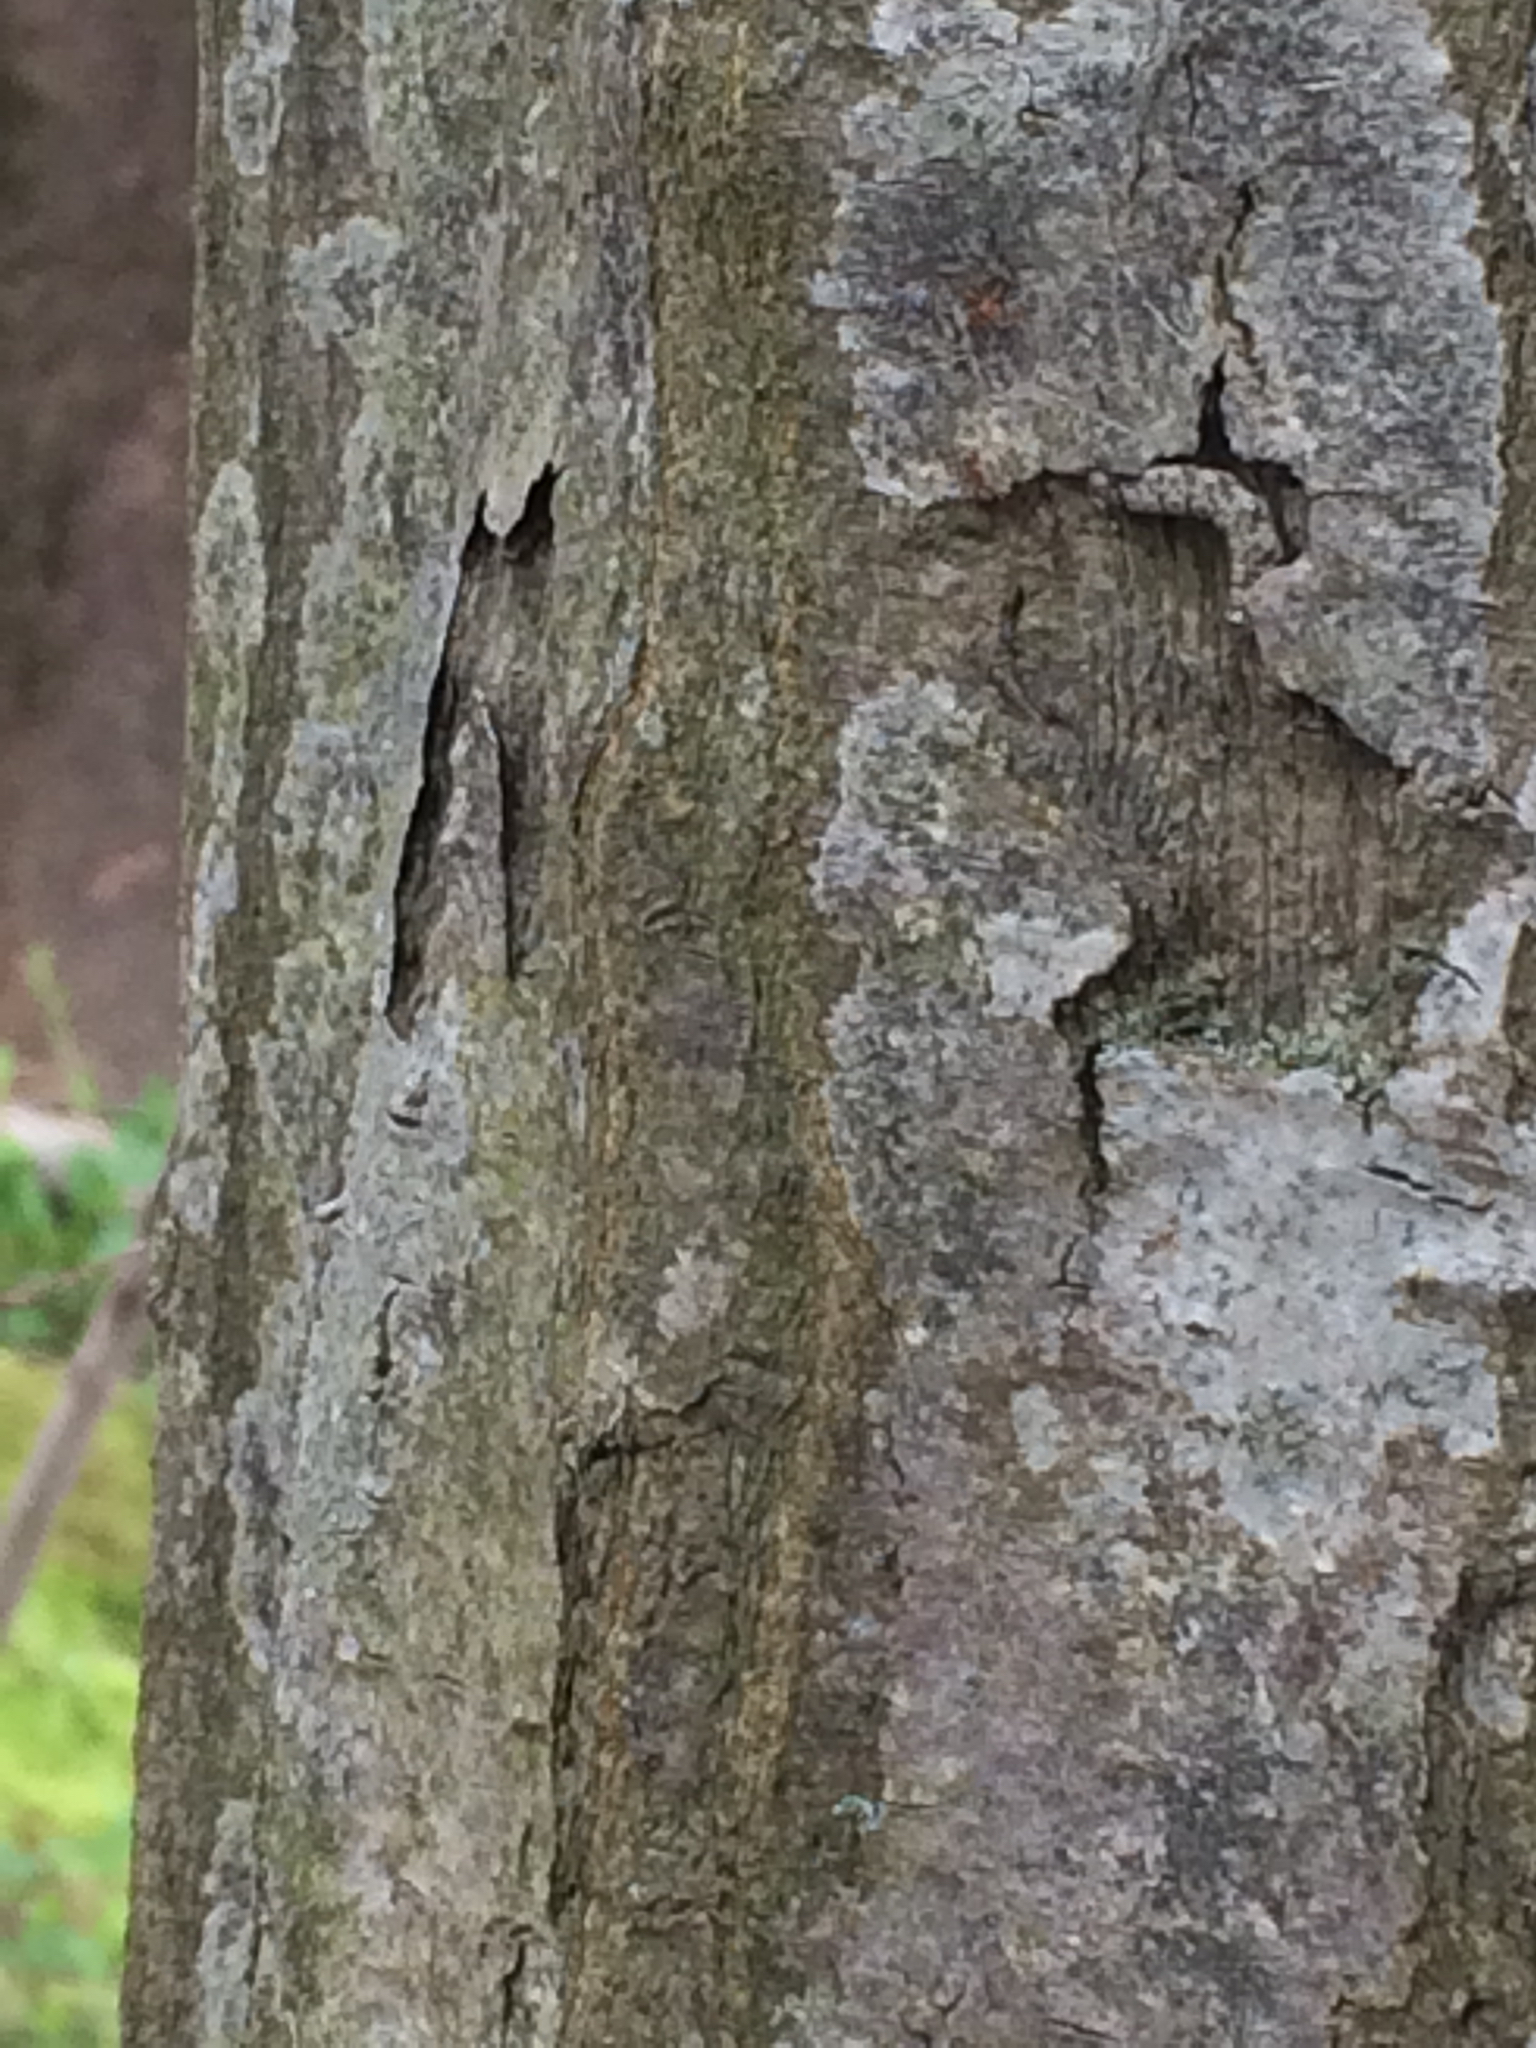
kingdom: Plantae
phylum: Tracheophyta
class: Magnoliopsida
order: Fagales
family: Betulaceae
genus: Carpinus
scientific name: Carpinus caroliniana
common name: American hornbeam
